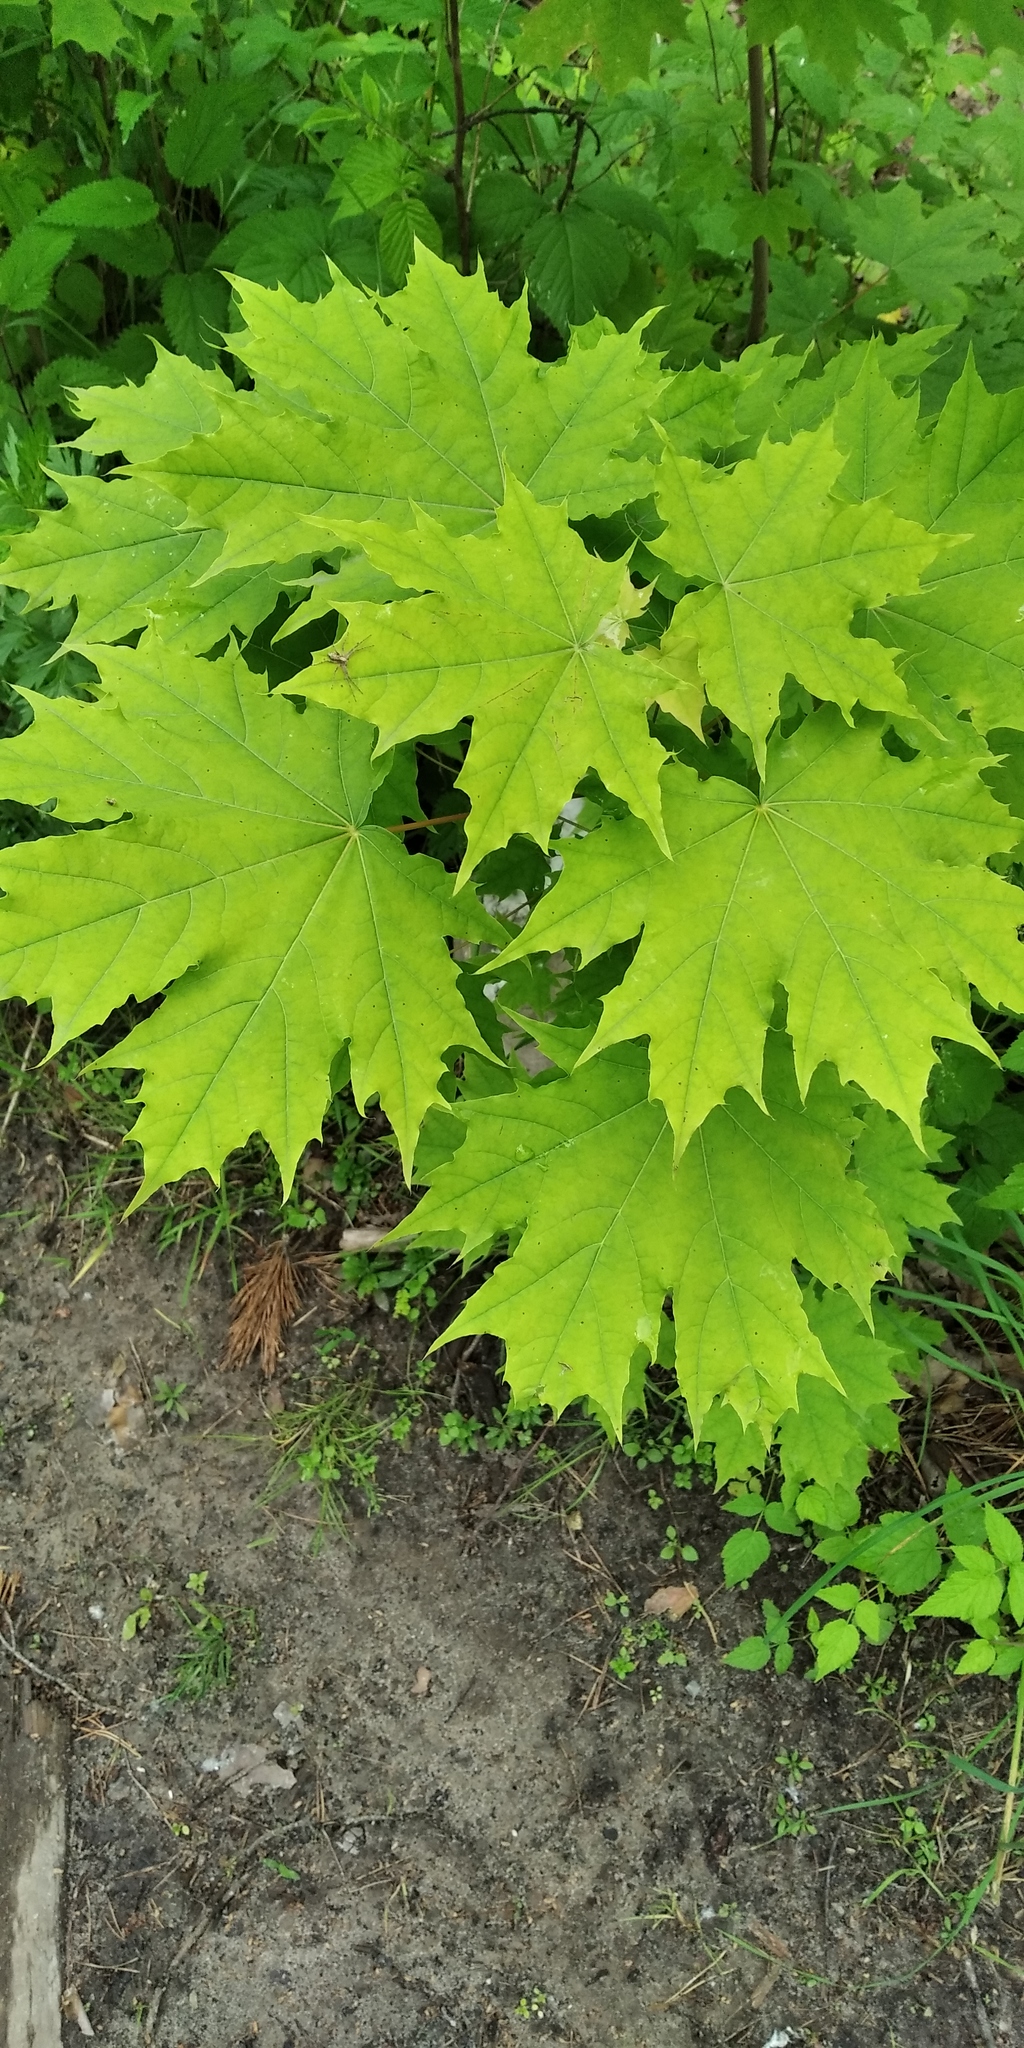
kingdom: Plantae
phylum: Tracheophyta
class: Magnoliopsida
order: Sapindales
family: Sapindaceae
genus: Acer
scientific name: Acer platanoides
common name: Norway maple
